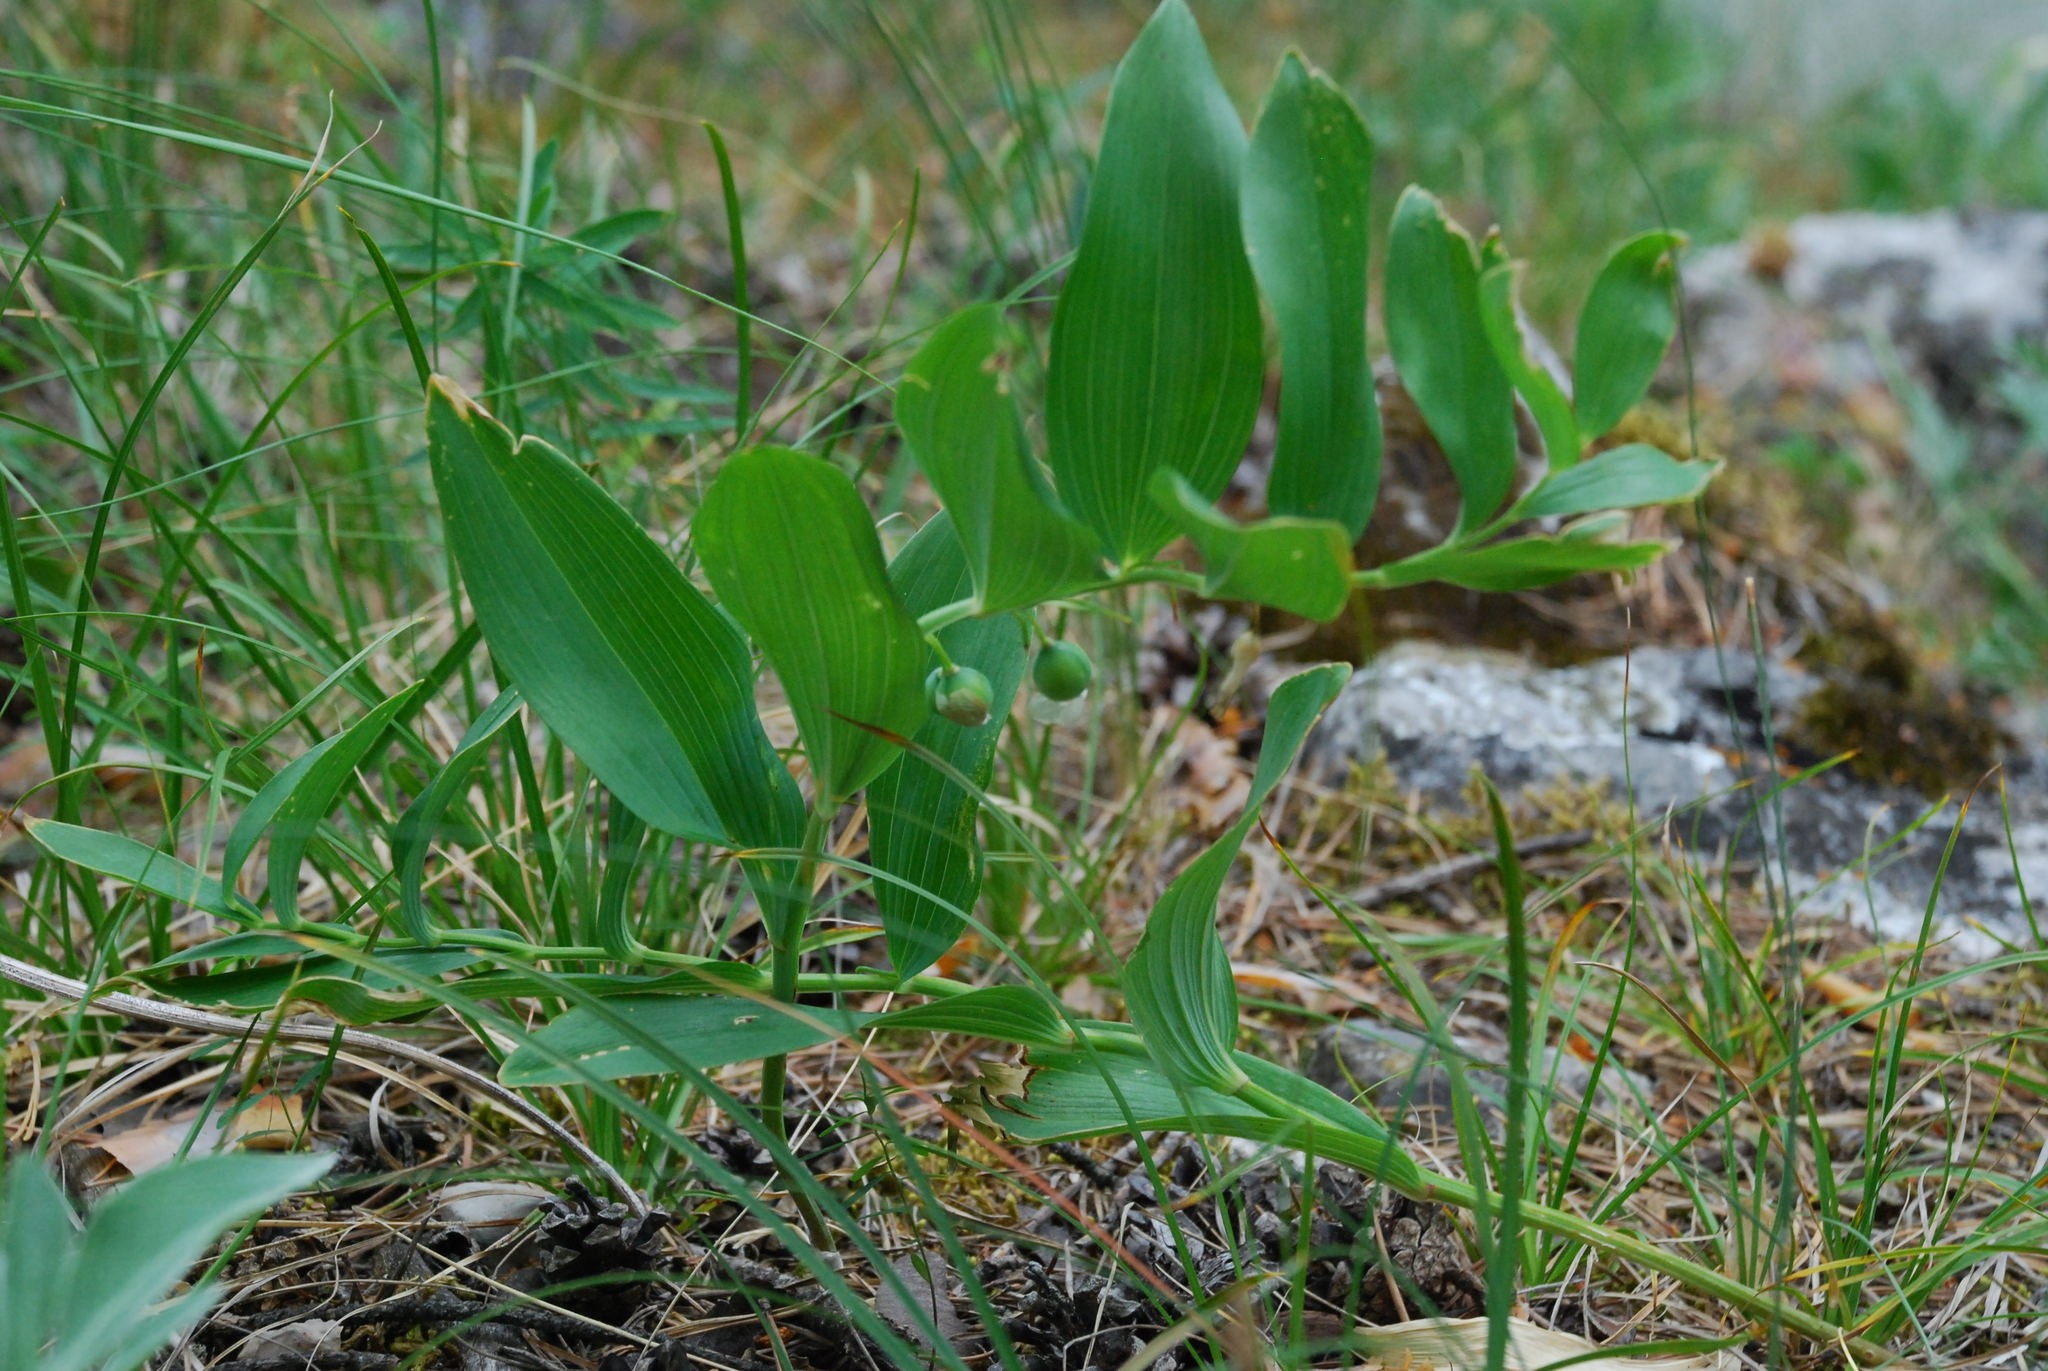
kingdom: Plantae
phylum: Tracheophyta
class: Liliopsida
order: Asparagales
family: Asparagaceae
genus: Polygonatum
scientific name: Polygonatum odoratum
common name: Angular solomon's-seal
